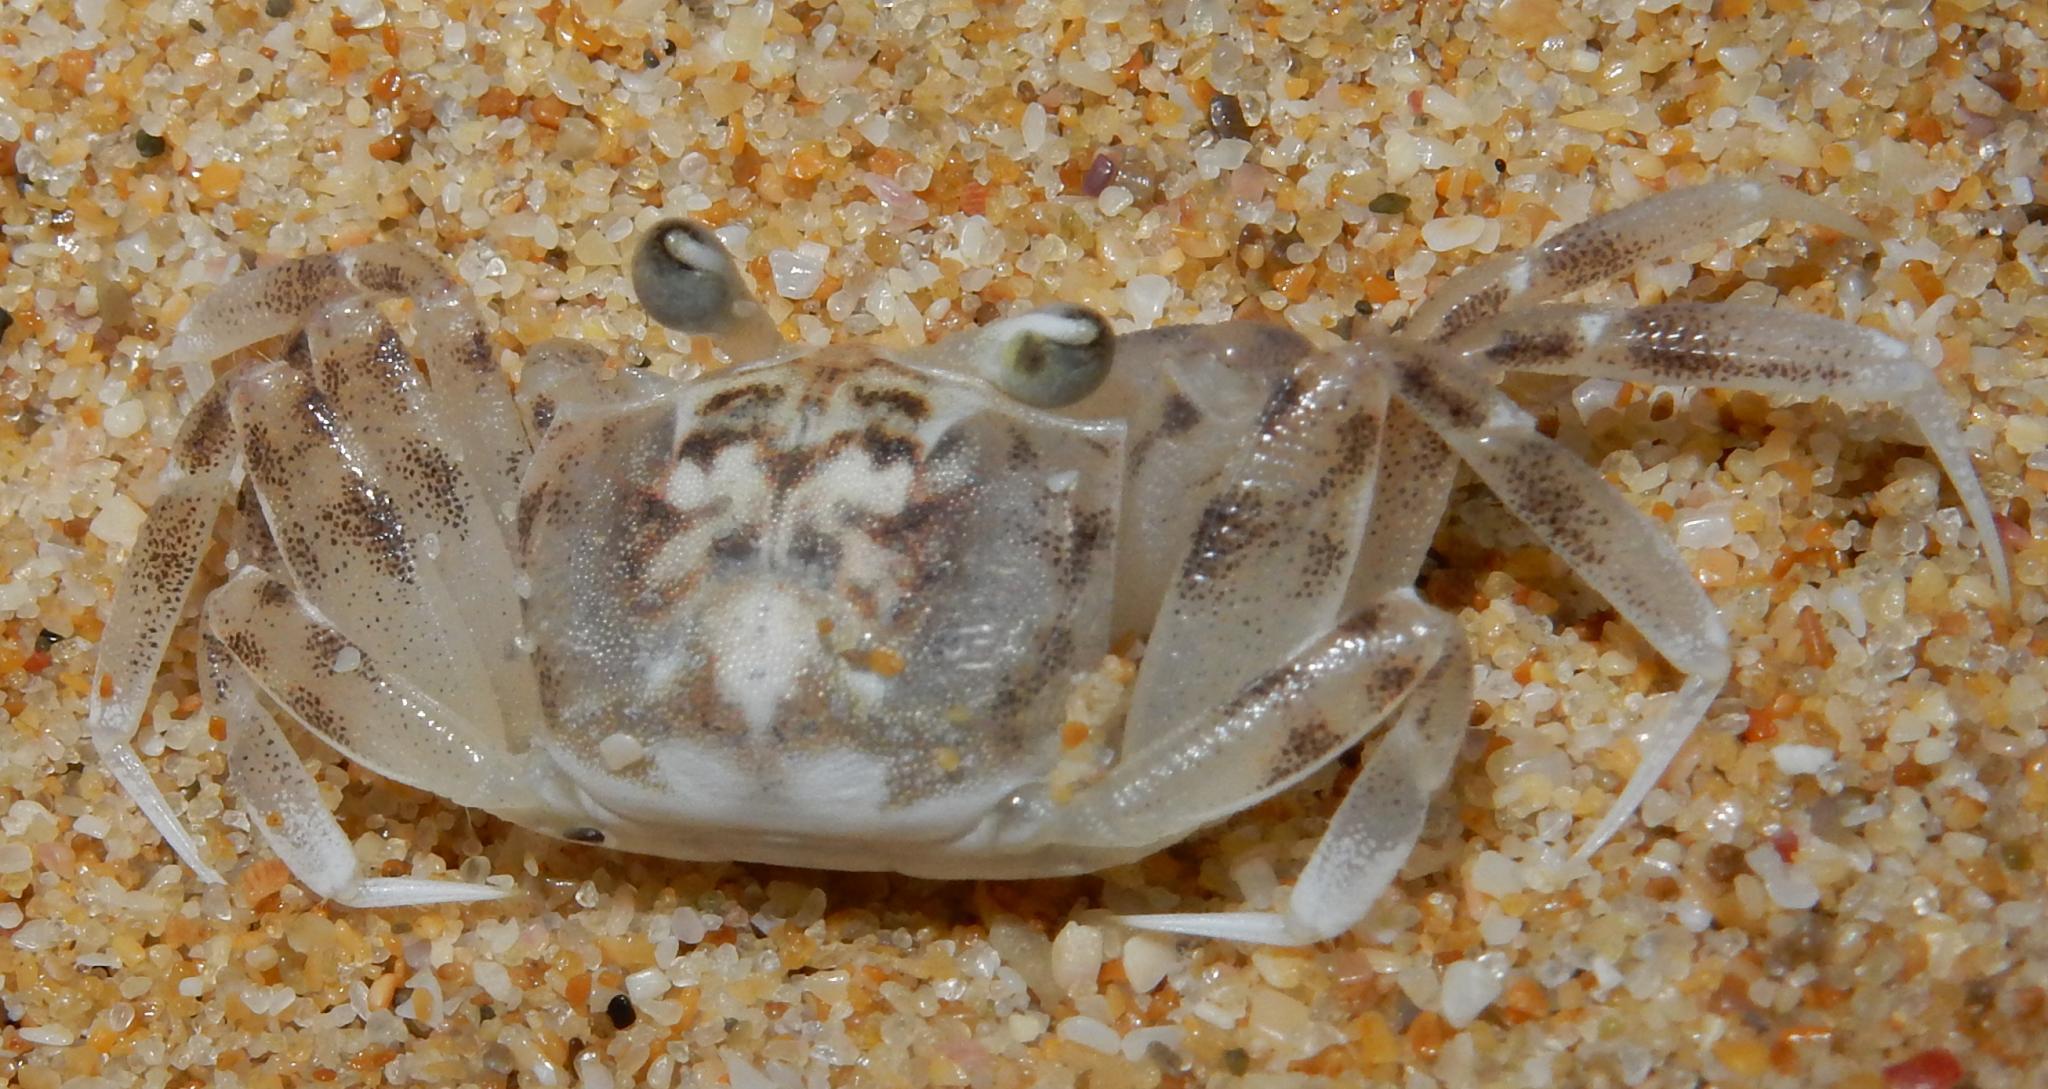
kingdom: Animalia
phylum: Arthropoda
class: Malacostraca
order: Decapoda
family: Ocypodidae
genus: Ocypode
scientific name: Ocypode
